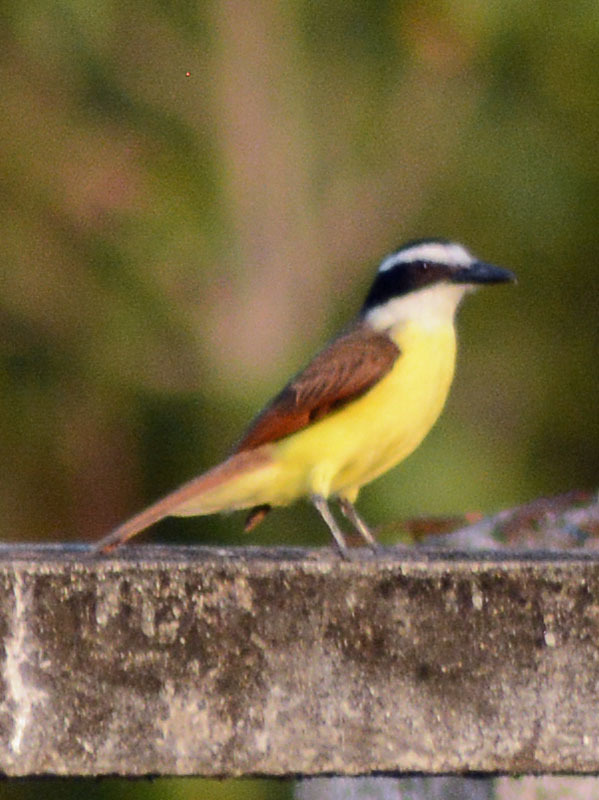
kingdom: Animalia
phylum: Chordata
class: Aves
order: Passeriformes
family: Tyrannidae
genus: Pitangus
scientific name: Pitangus sulphuratus
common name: Great kiskadee
